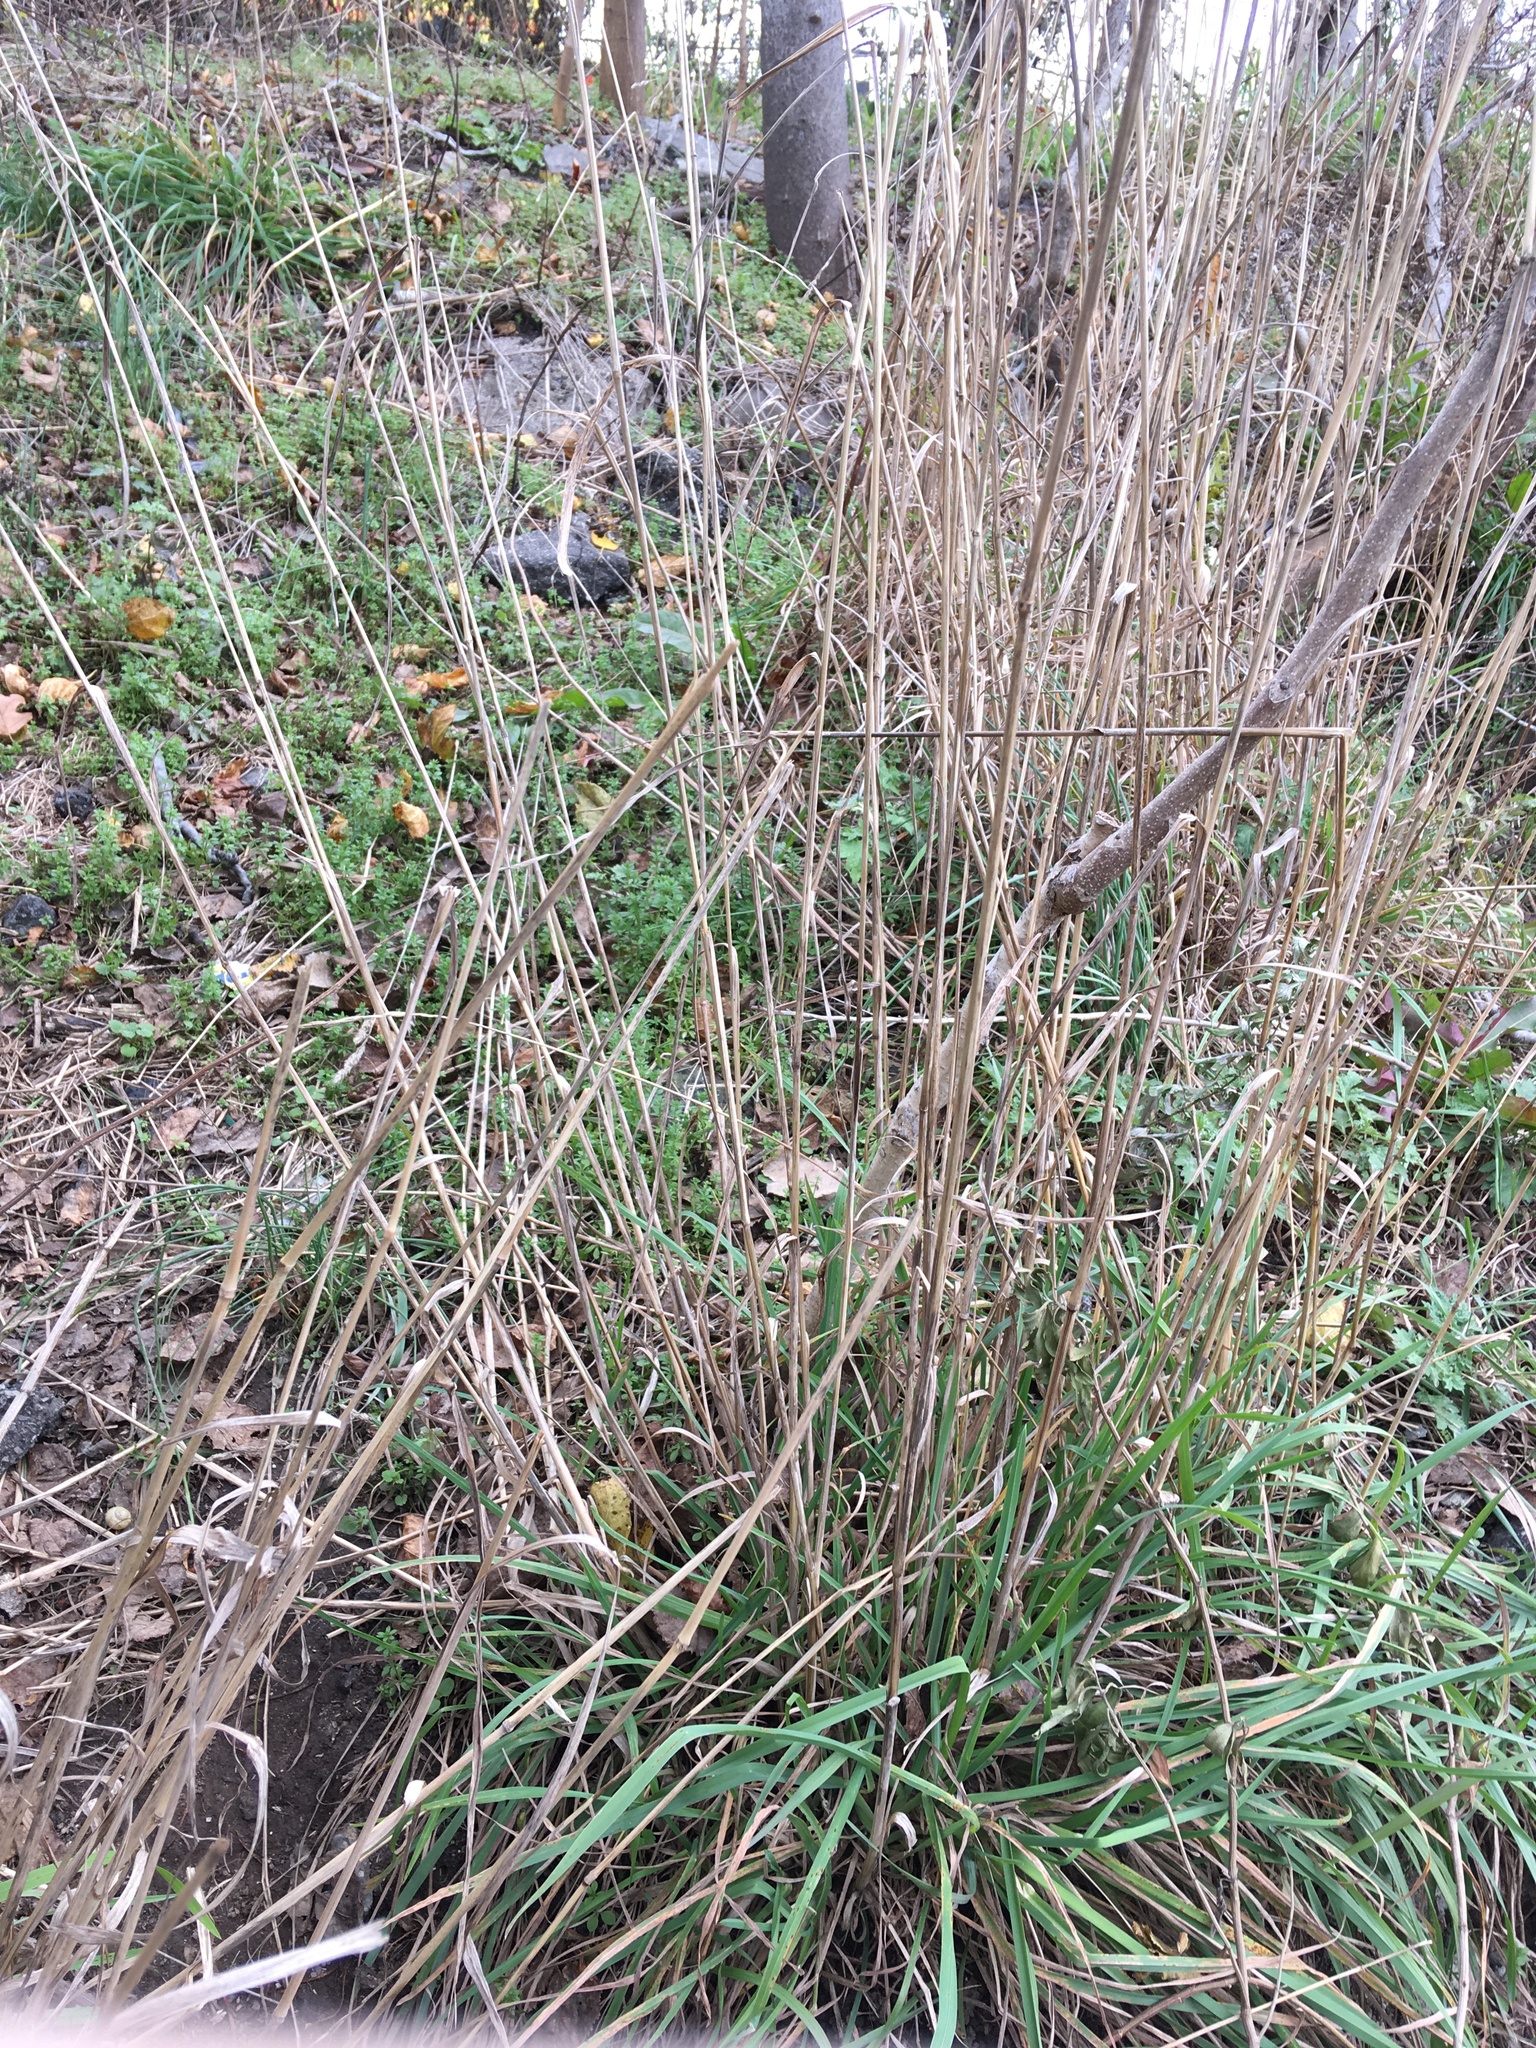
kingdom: Plantae
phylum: Tracheophyta
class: Liliopsida
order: Poales
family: Poaceae
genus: Dactylis
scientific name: Dactylis glomerata
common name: Orchardgrass
